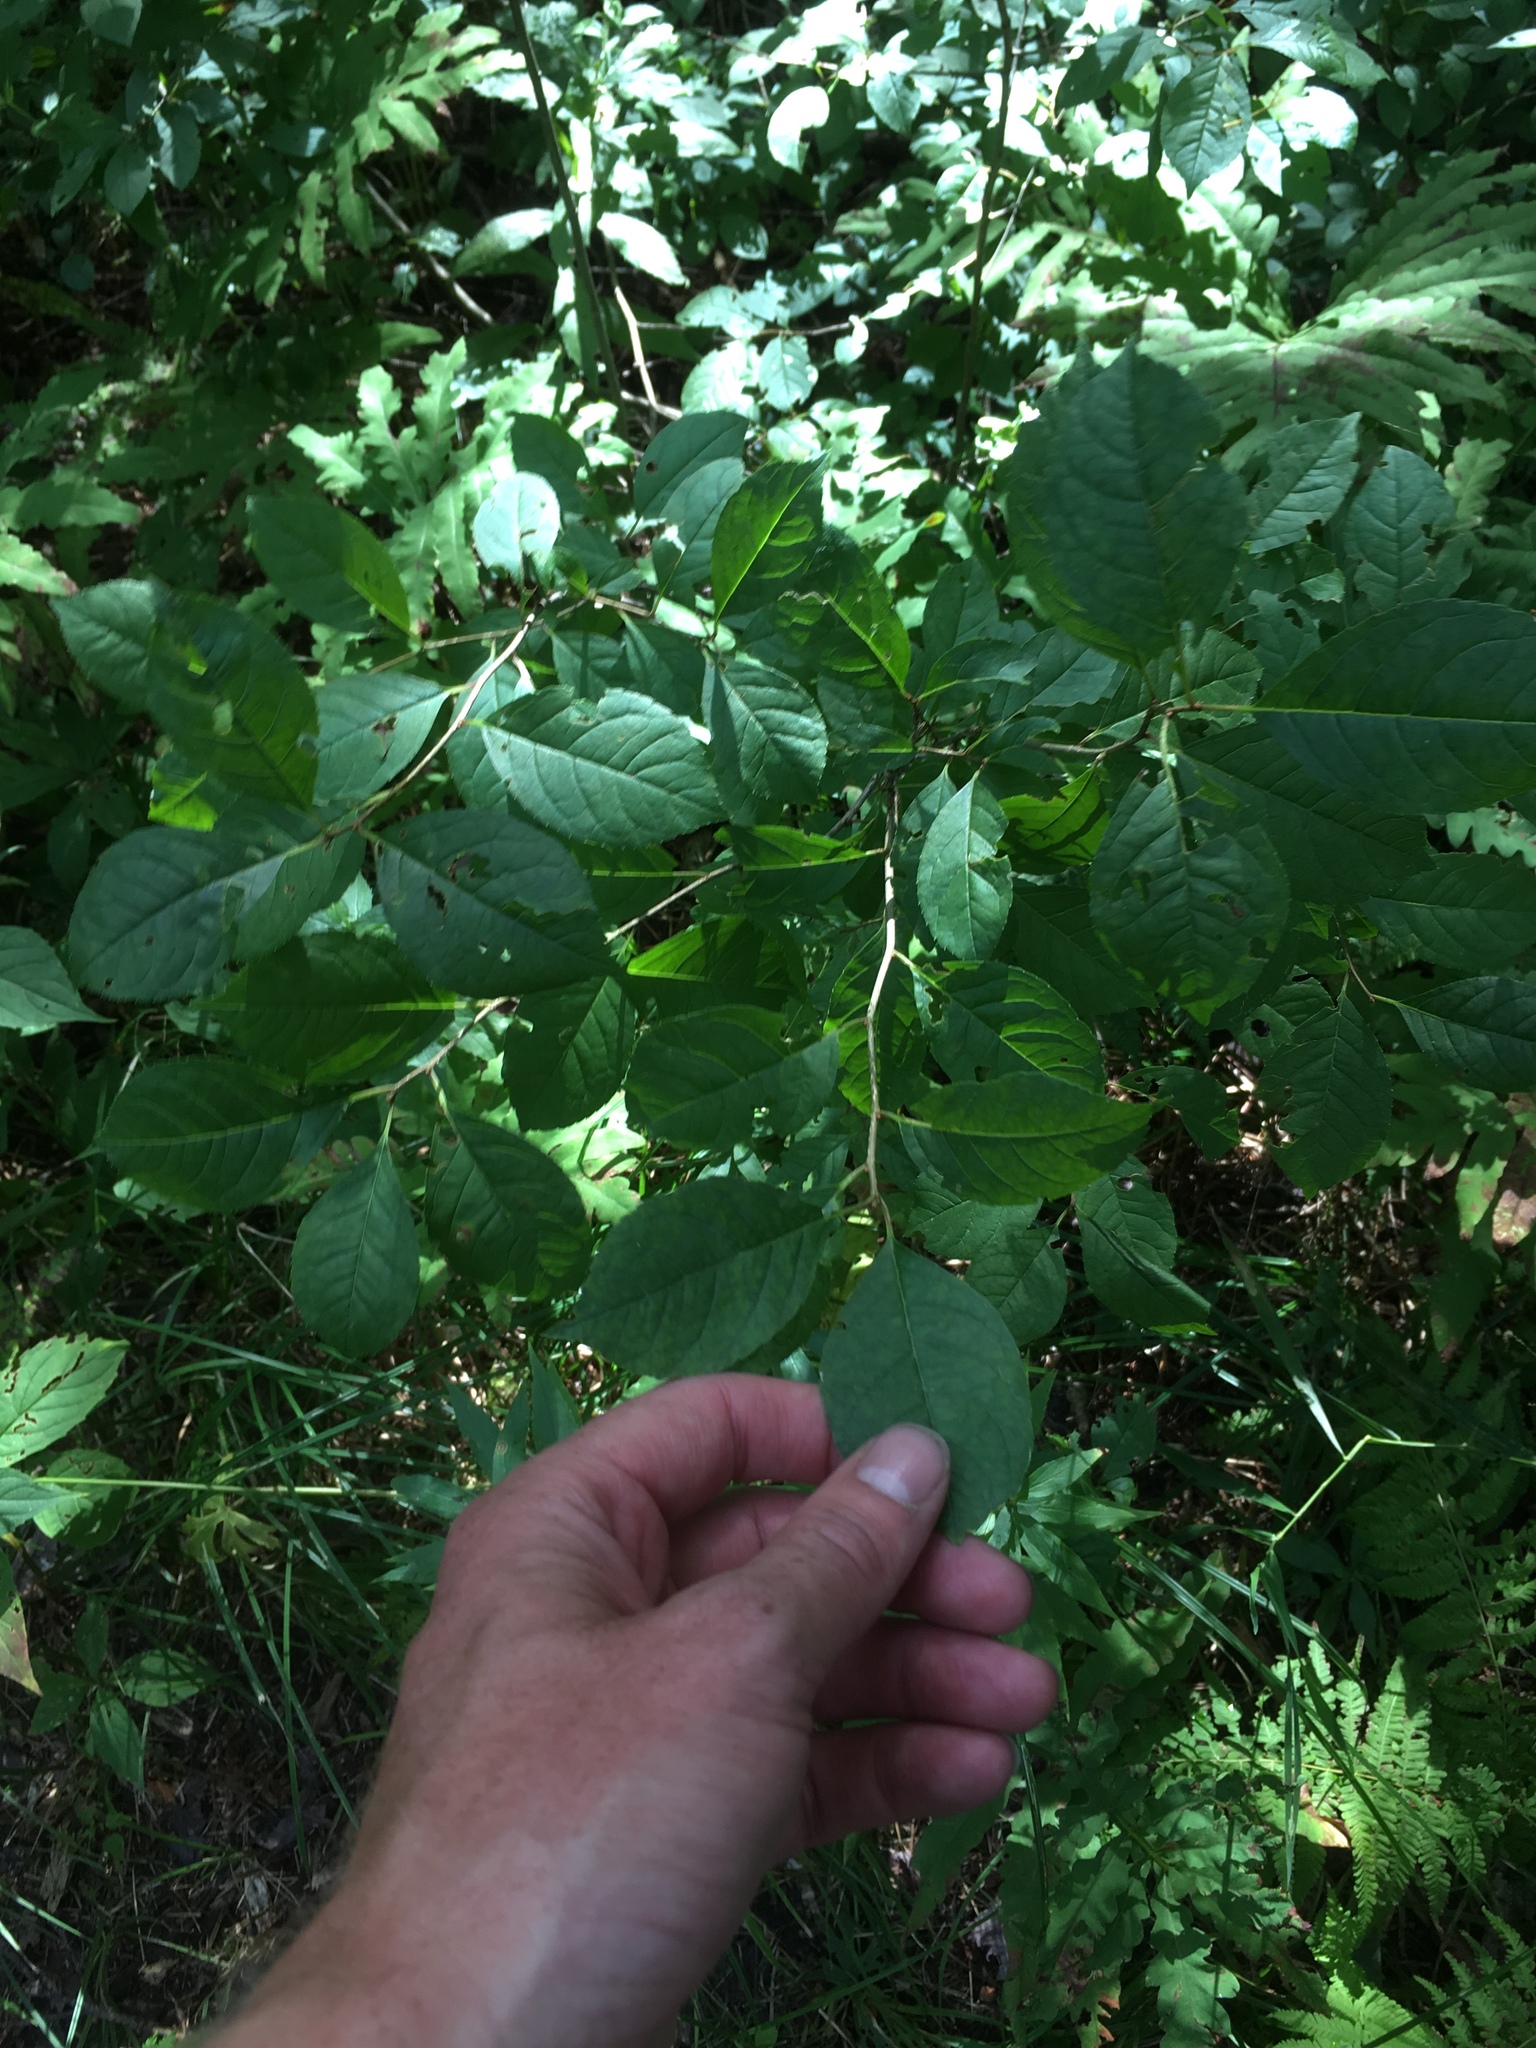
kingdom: Plantae
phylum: Tracheophyta
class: Magnoliopsida
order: Aquifoliales
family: Aquifoliaceae
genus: Ilex
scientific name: Ilex verticillata
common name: Virginia winterberry
